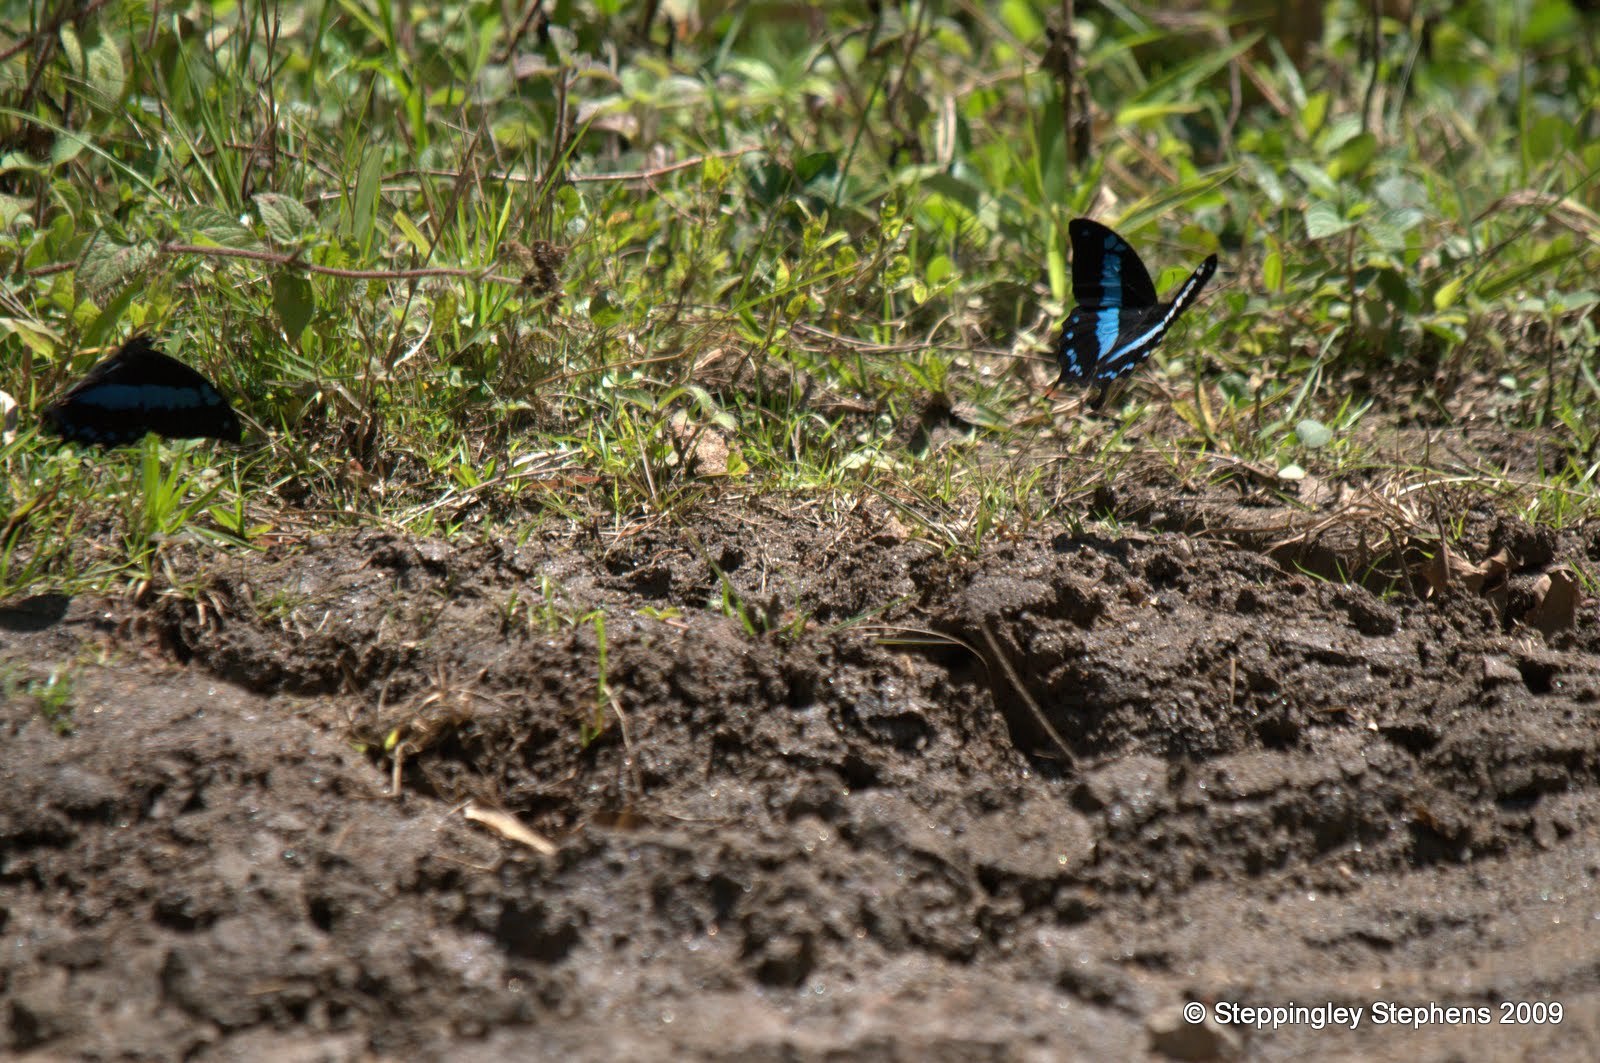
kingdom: Animalia
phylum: Arthropoda
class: Insecta
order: Lepidoptera
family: Papilionidae
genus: Papilio
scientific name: Papilio oribazus
